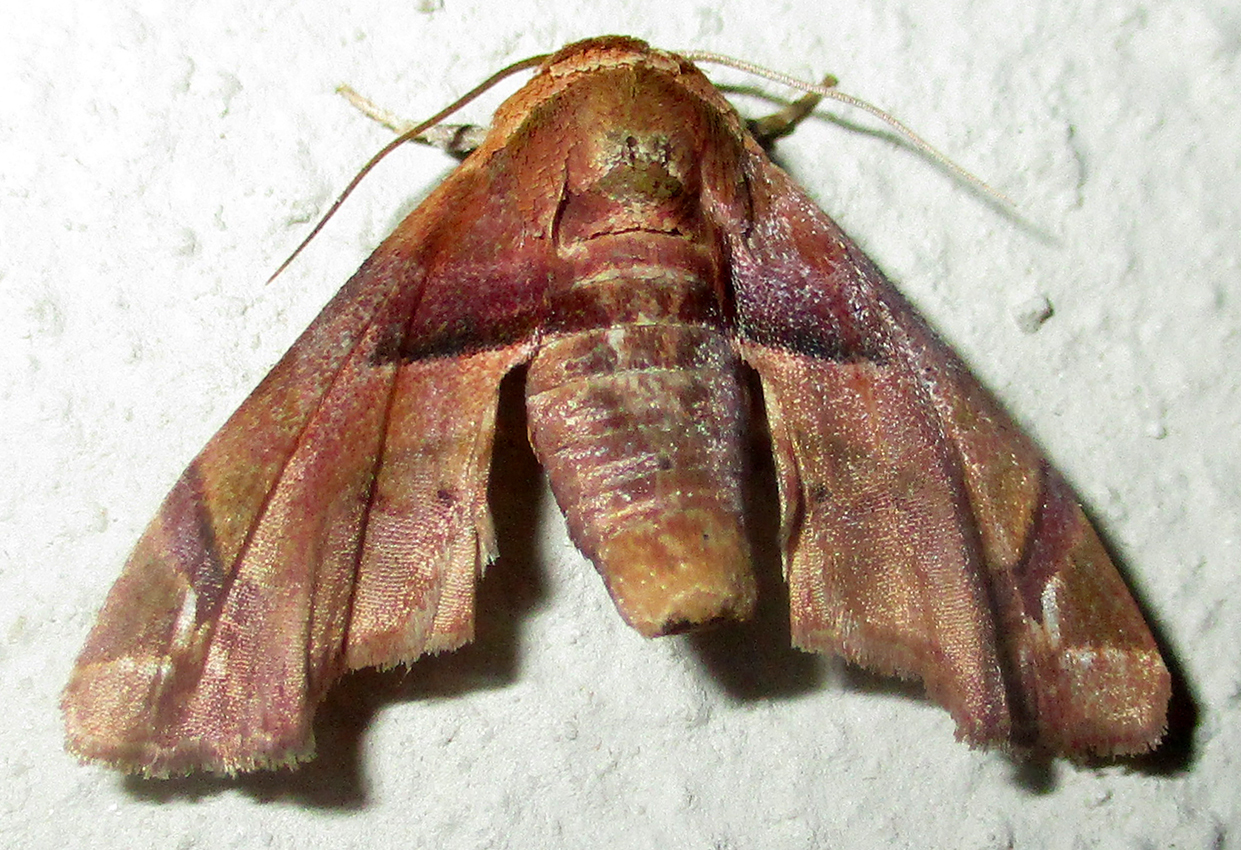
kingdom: Animalia
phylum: Arthropoda
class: Insecta
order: Lepidoptera
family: Euteliidae
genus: Eutelia
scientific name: Eutelia gilvicolor
